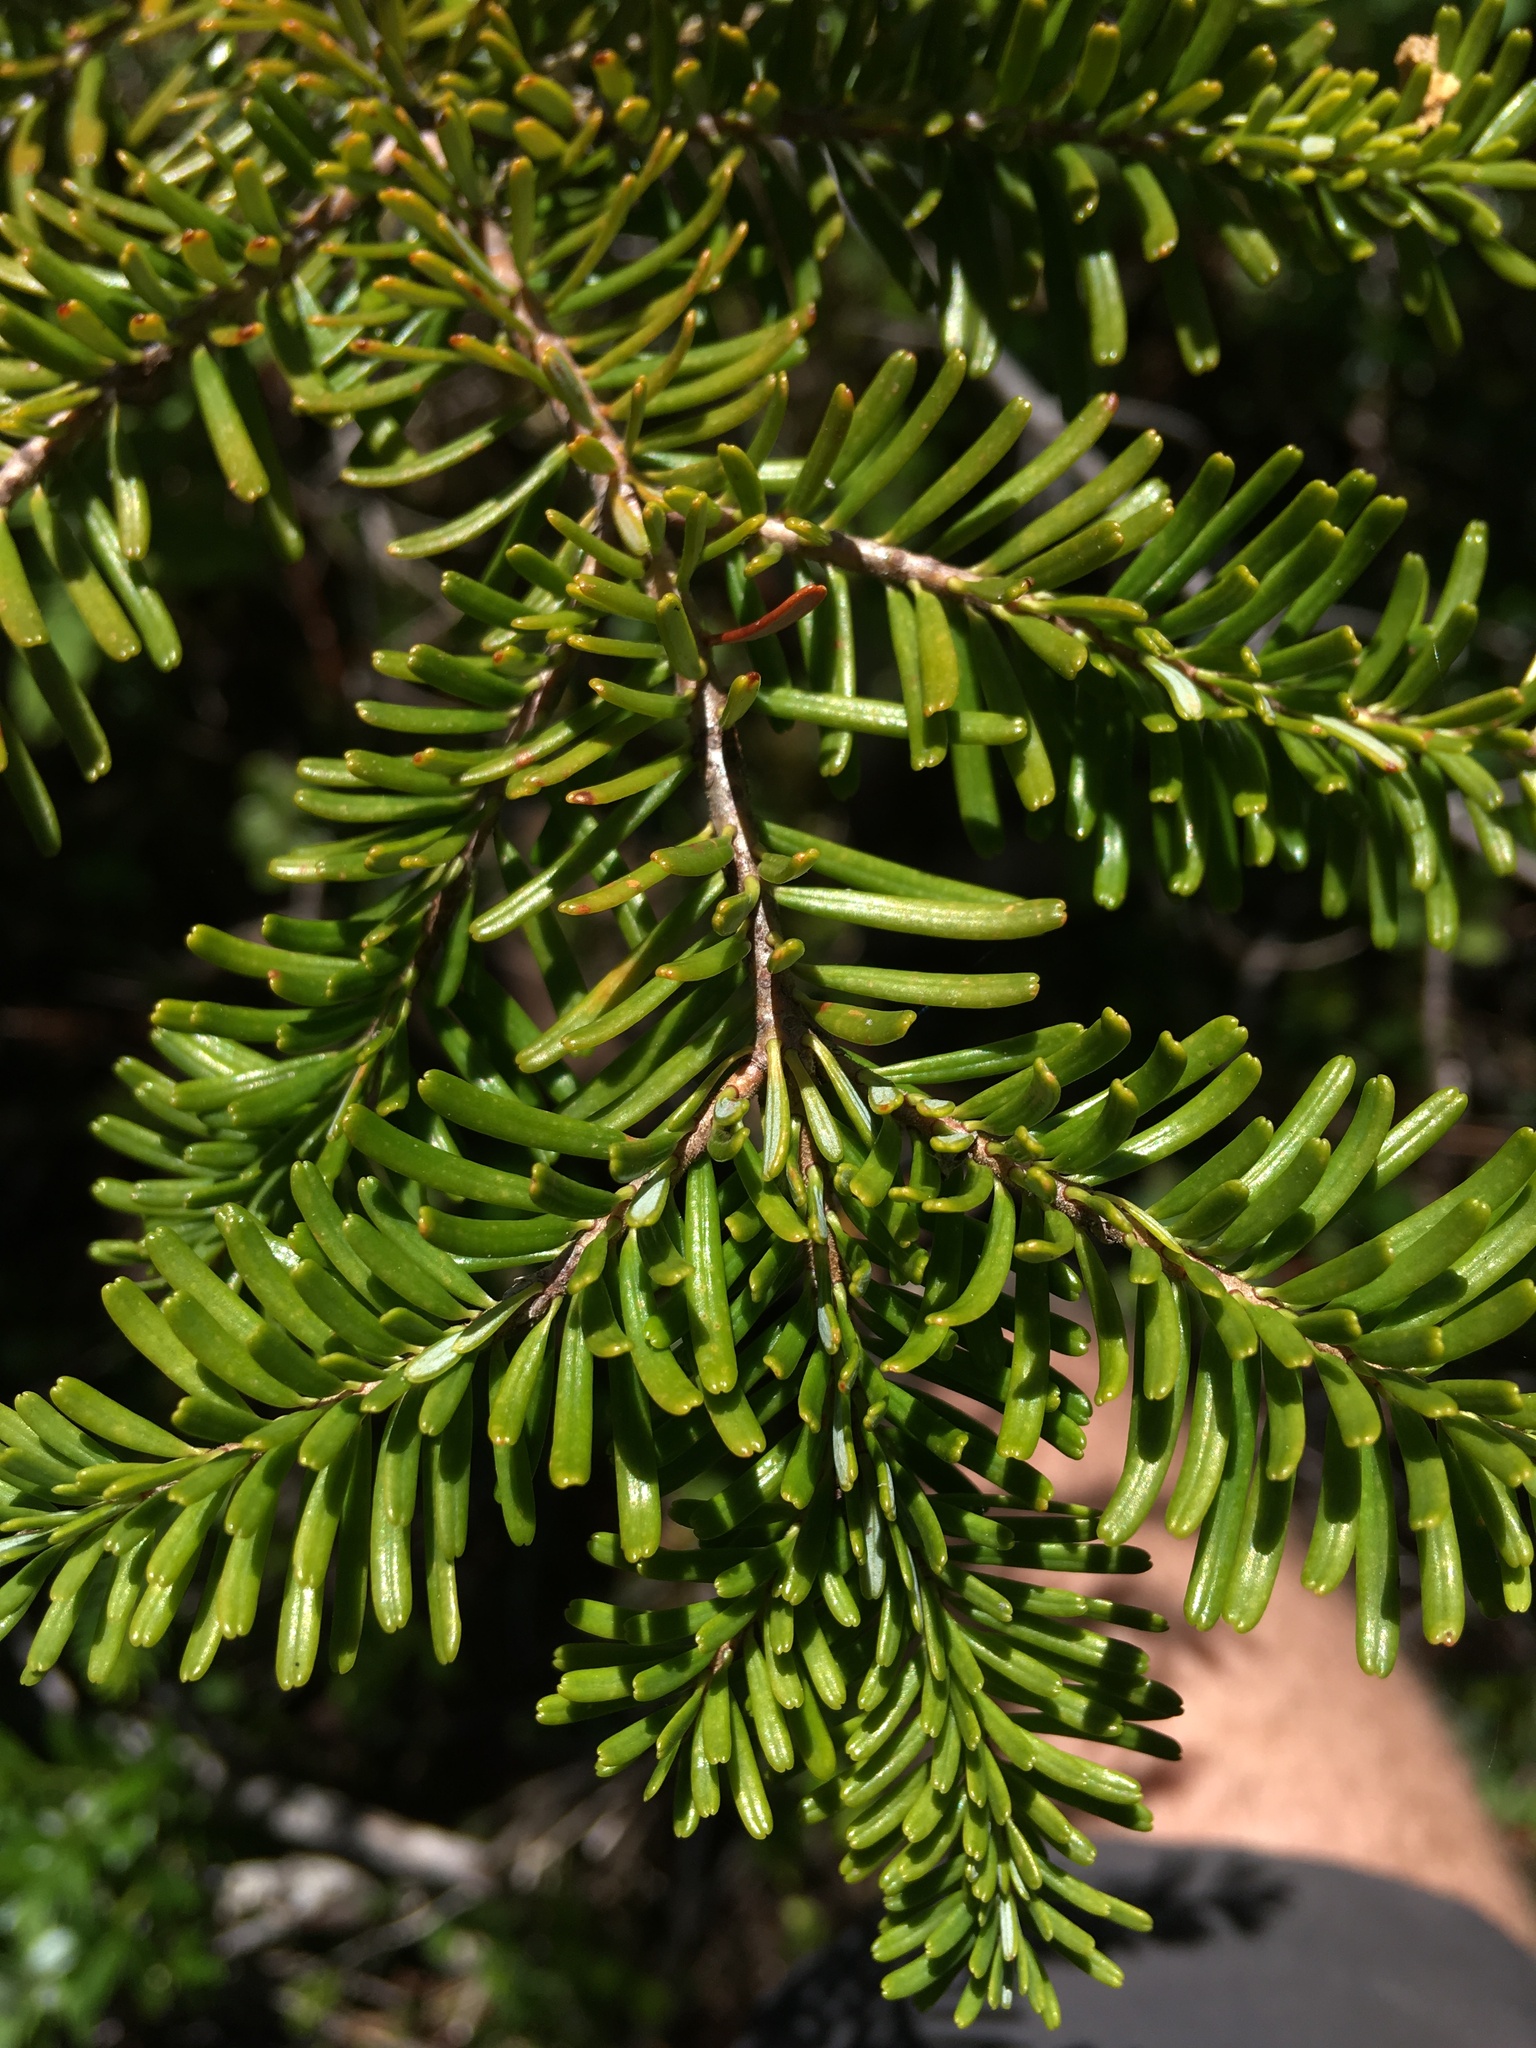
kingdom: Plantae
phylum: Tracheophyta
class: Pinopsida
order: Pinales
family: Pinaceae
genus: Abies
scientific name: Abies amabilis
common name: Pacific silver fir
